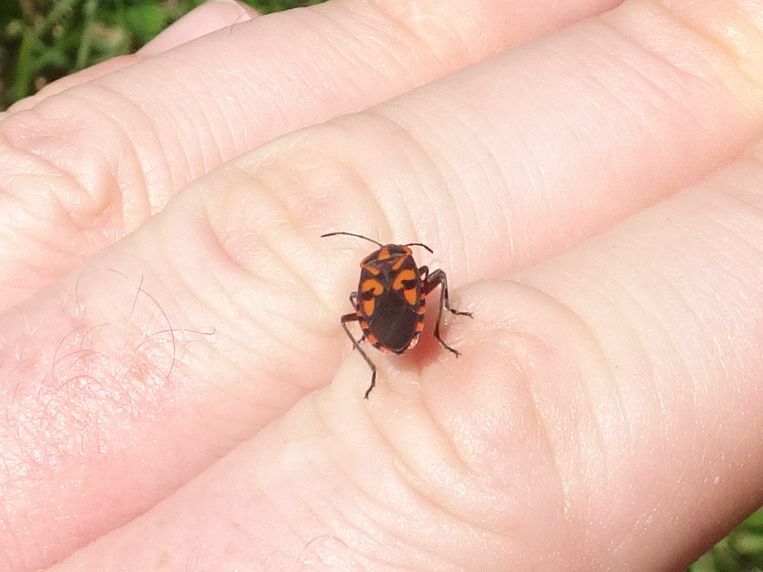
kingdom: Animalia
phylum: Arthropoda
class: Insecta
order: Hemiptera
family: Lygaeidae
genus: Spilostethus
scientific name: Spilostethus saxatilis
